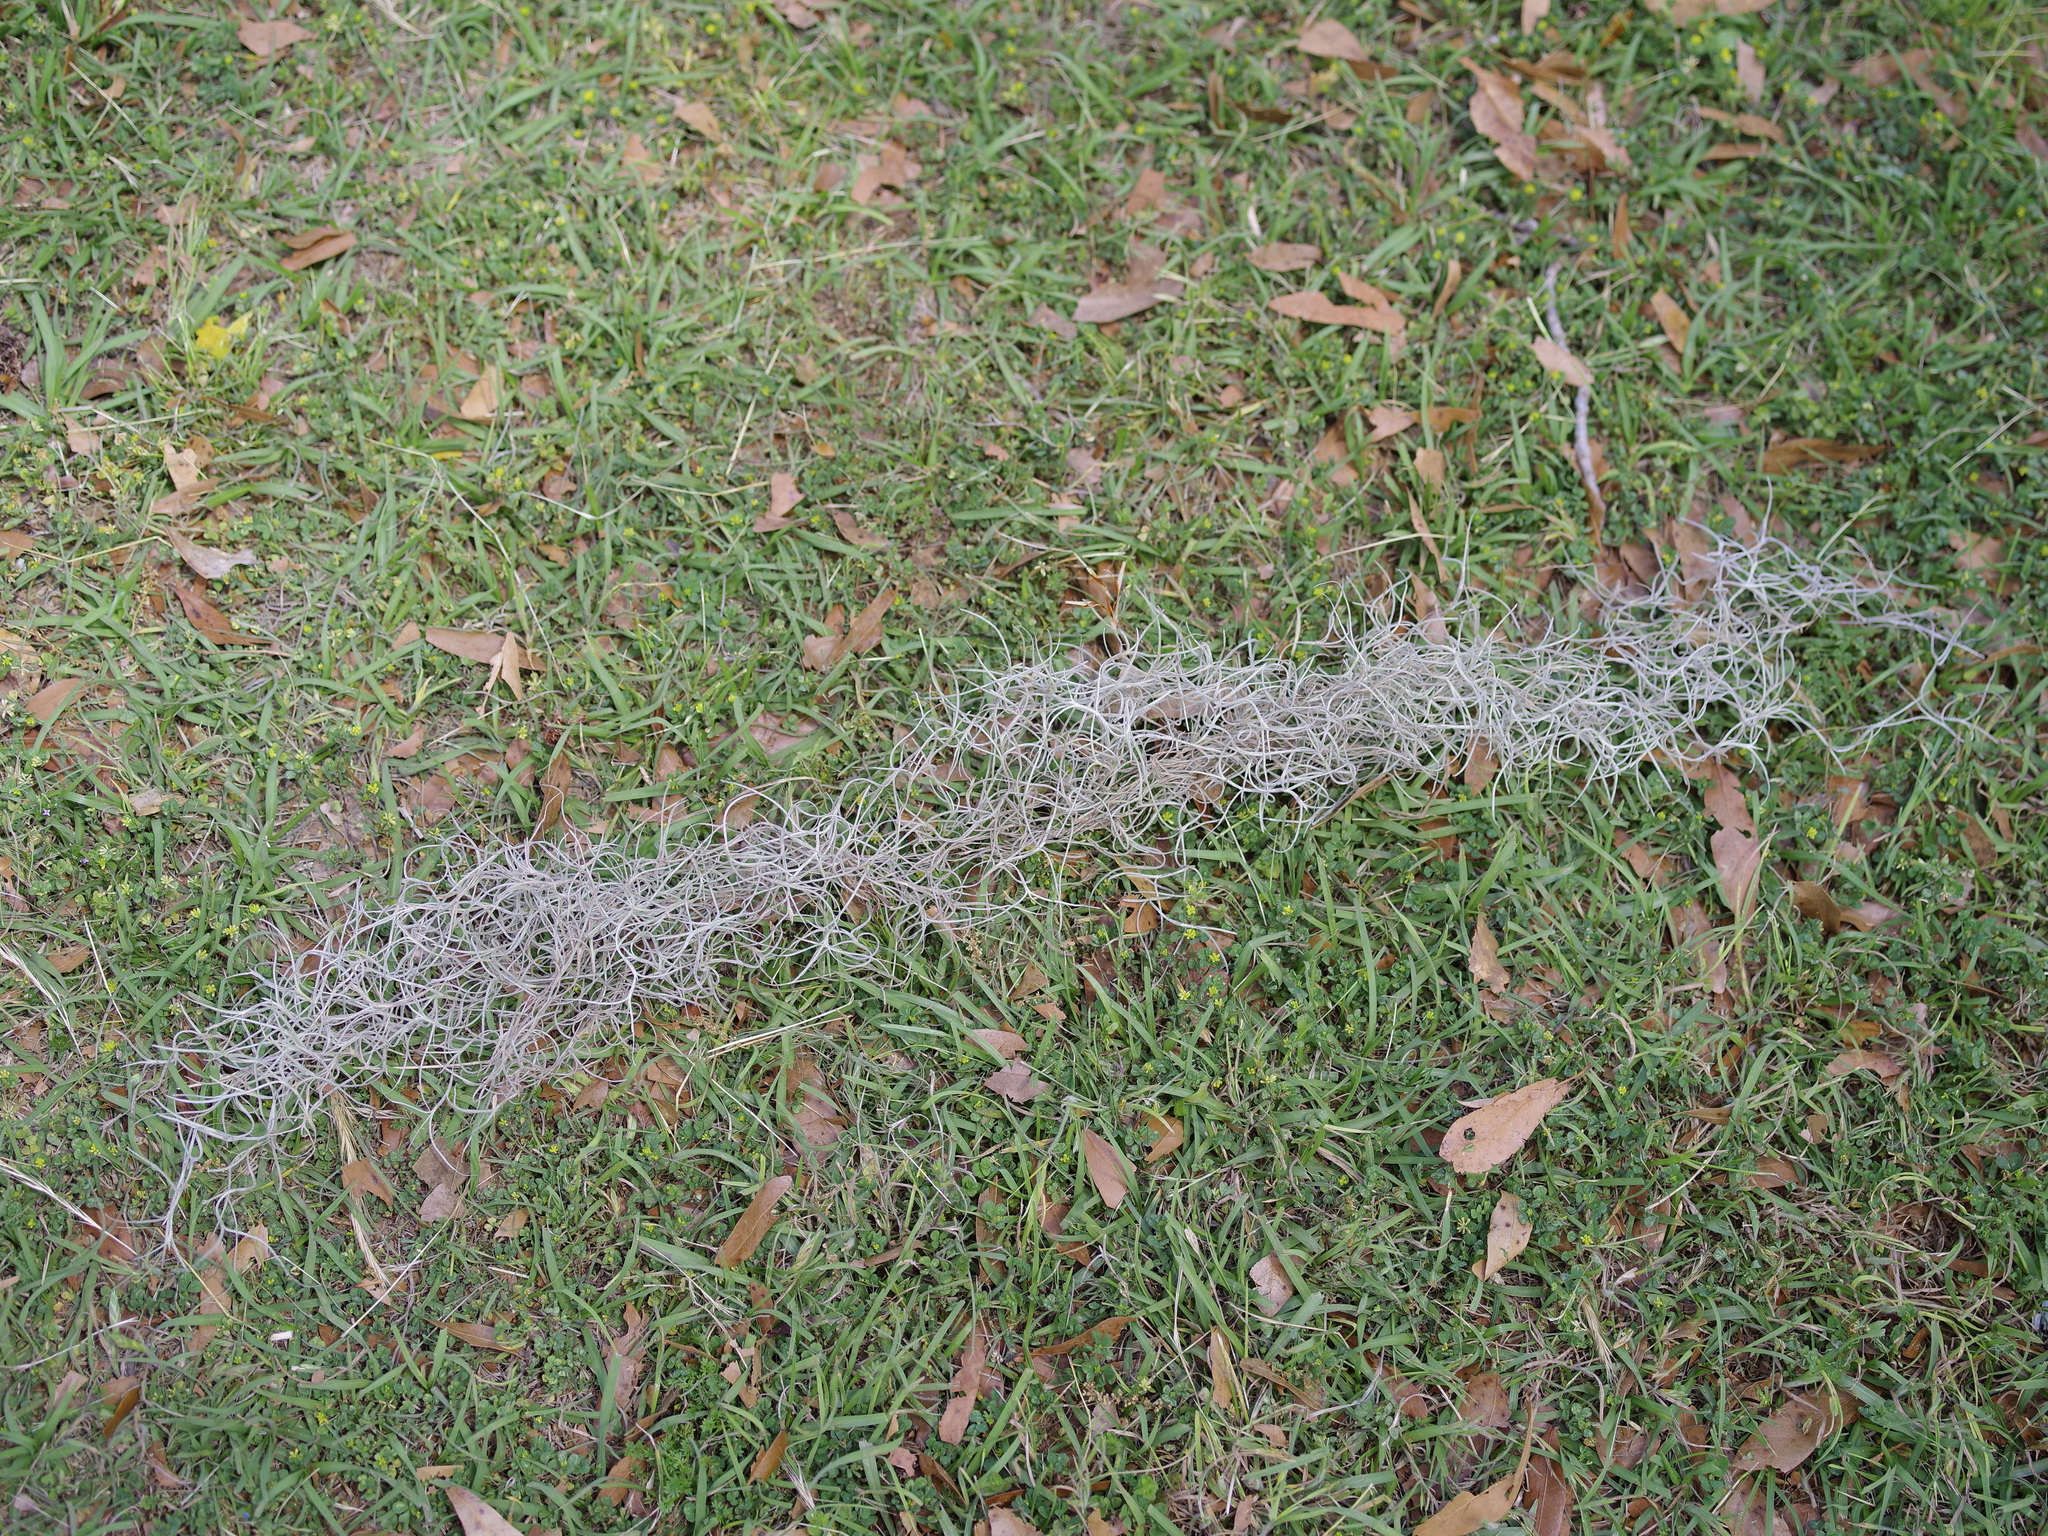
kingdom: Plantae
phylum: Tracheophyta
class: Liliopsida
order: Poales
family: Bromeliaceae
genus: Tillandsia
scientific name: Tillandsia usneoides
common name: Spanish moss
